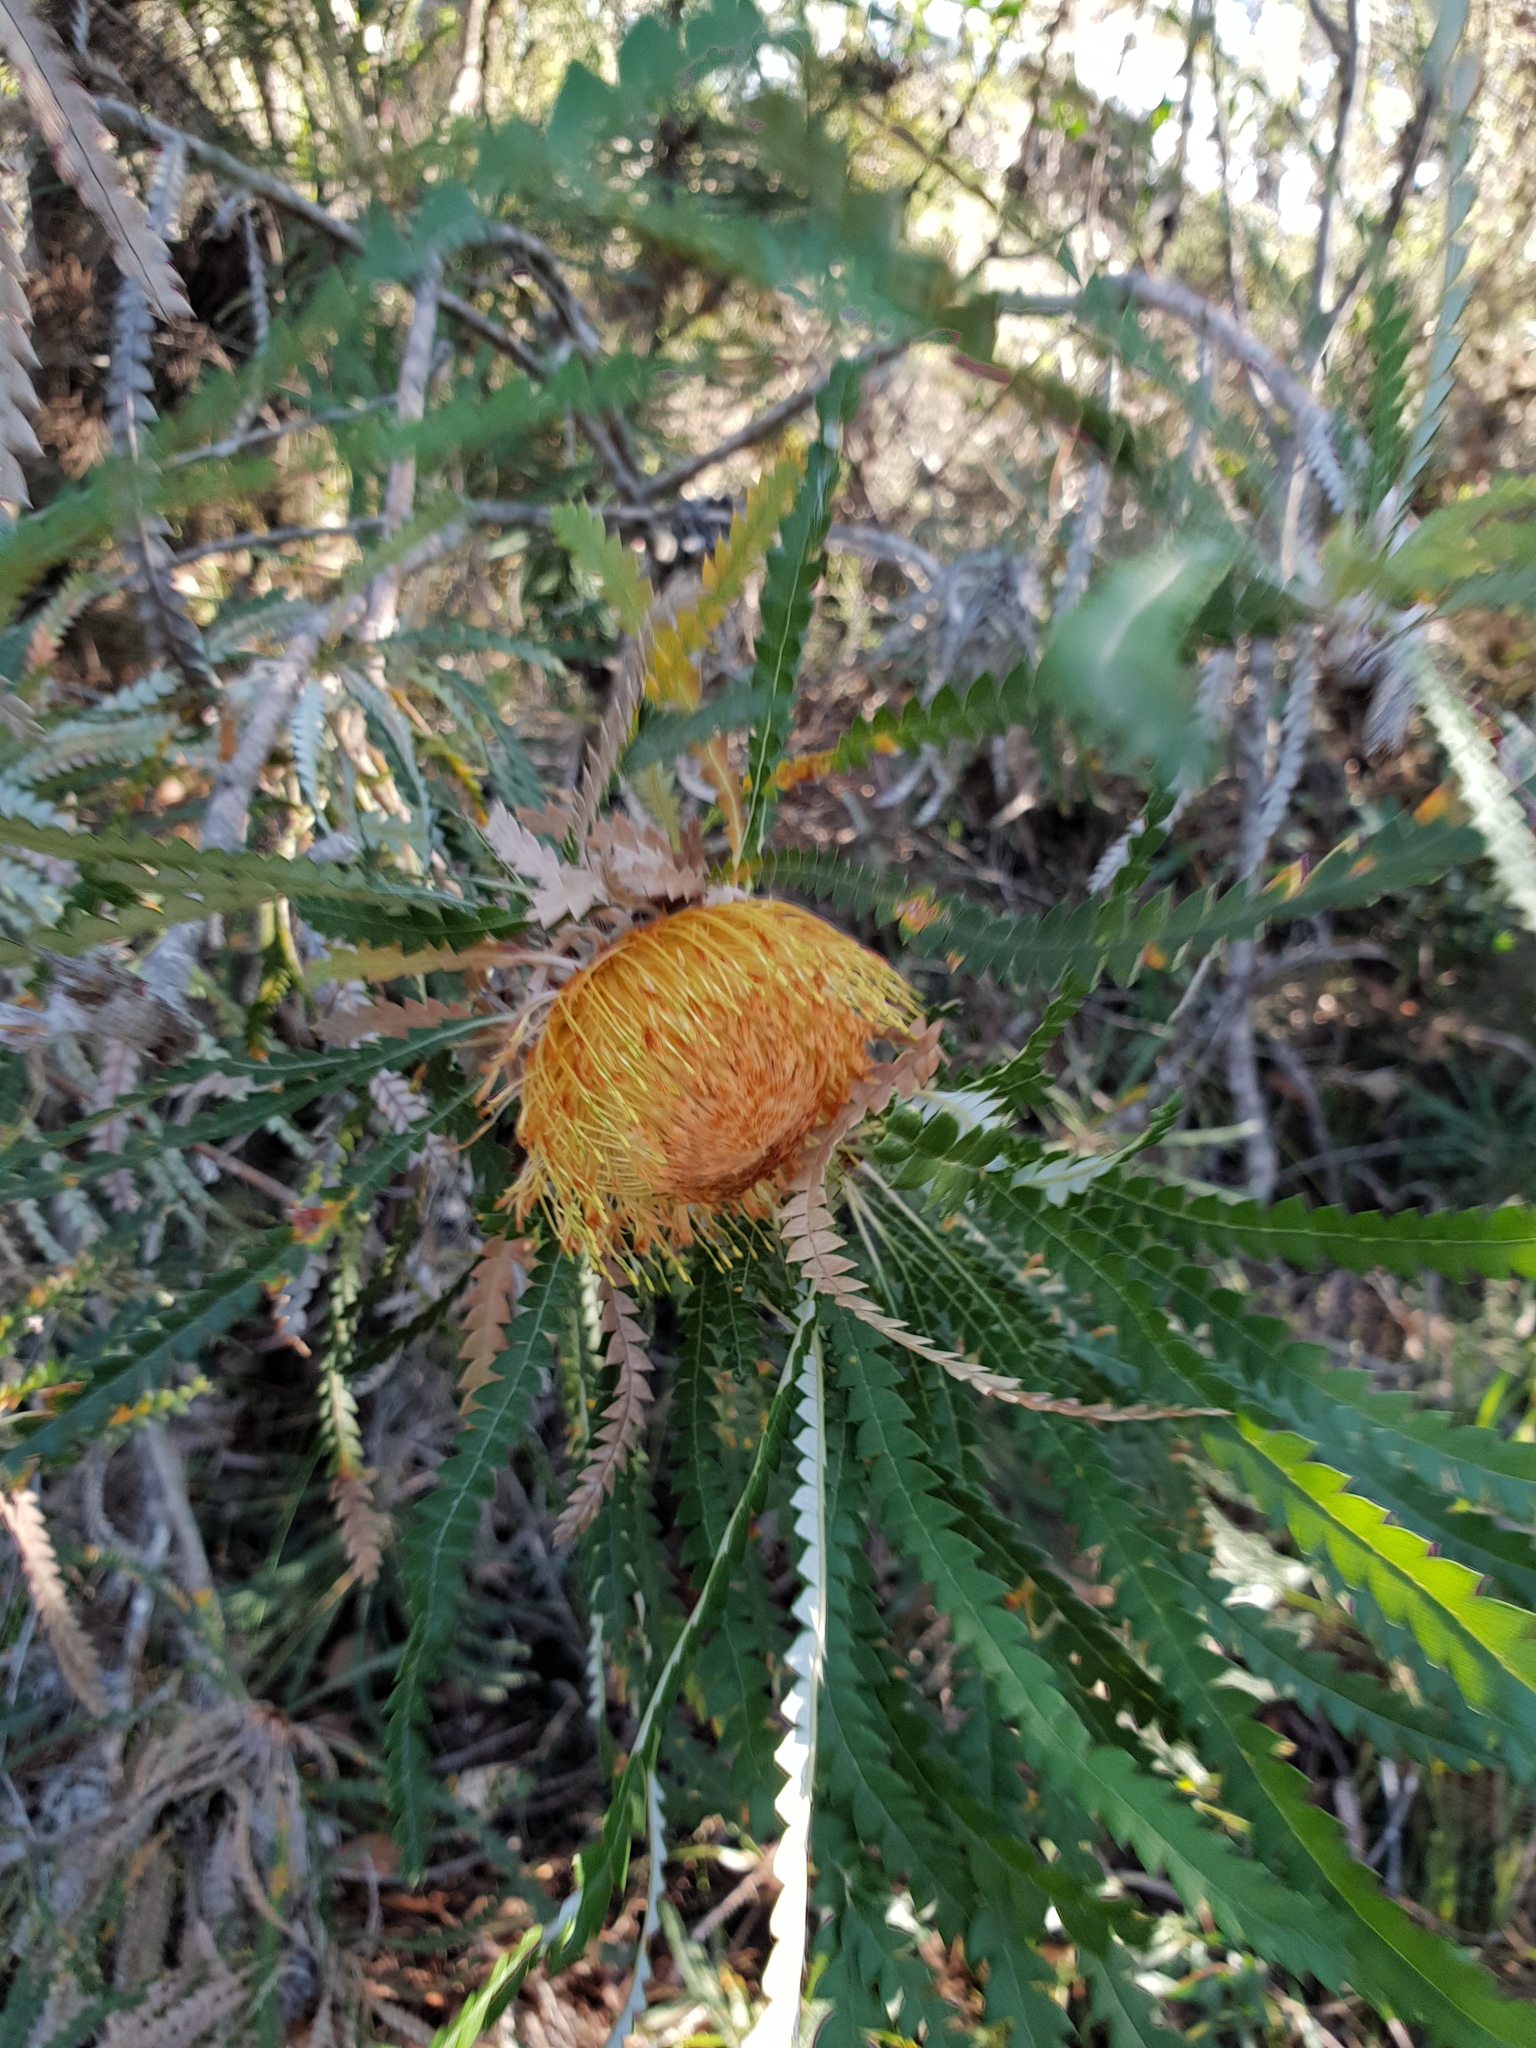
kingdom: Plantae
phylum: Tracheophyta
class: Magnoliopsida
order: Proteales
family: Proteaceae
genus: Banksia
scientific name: Banksia formosa
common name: Showy dryandra
